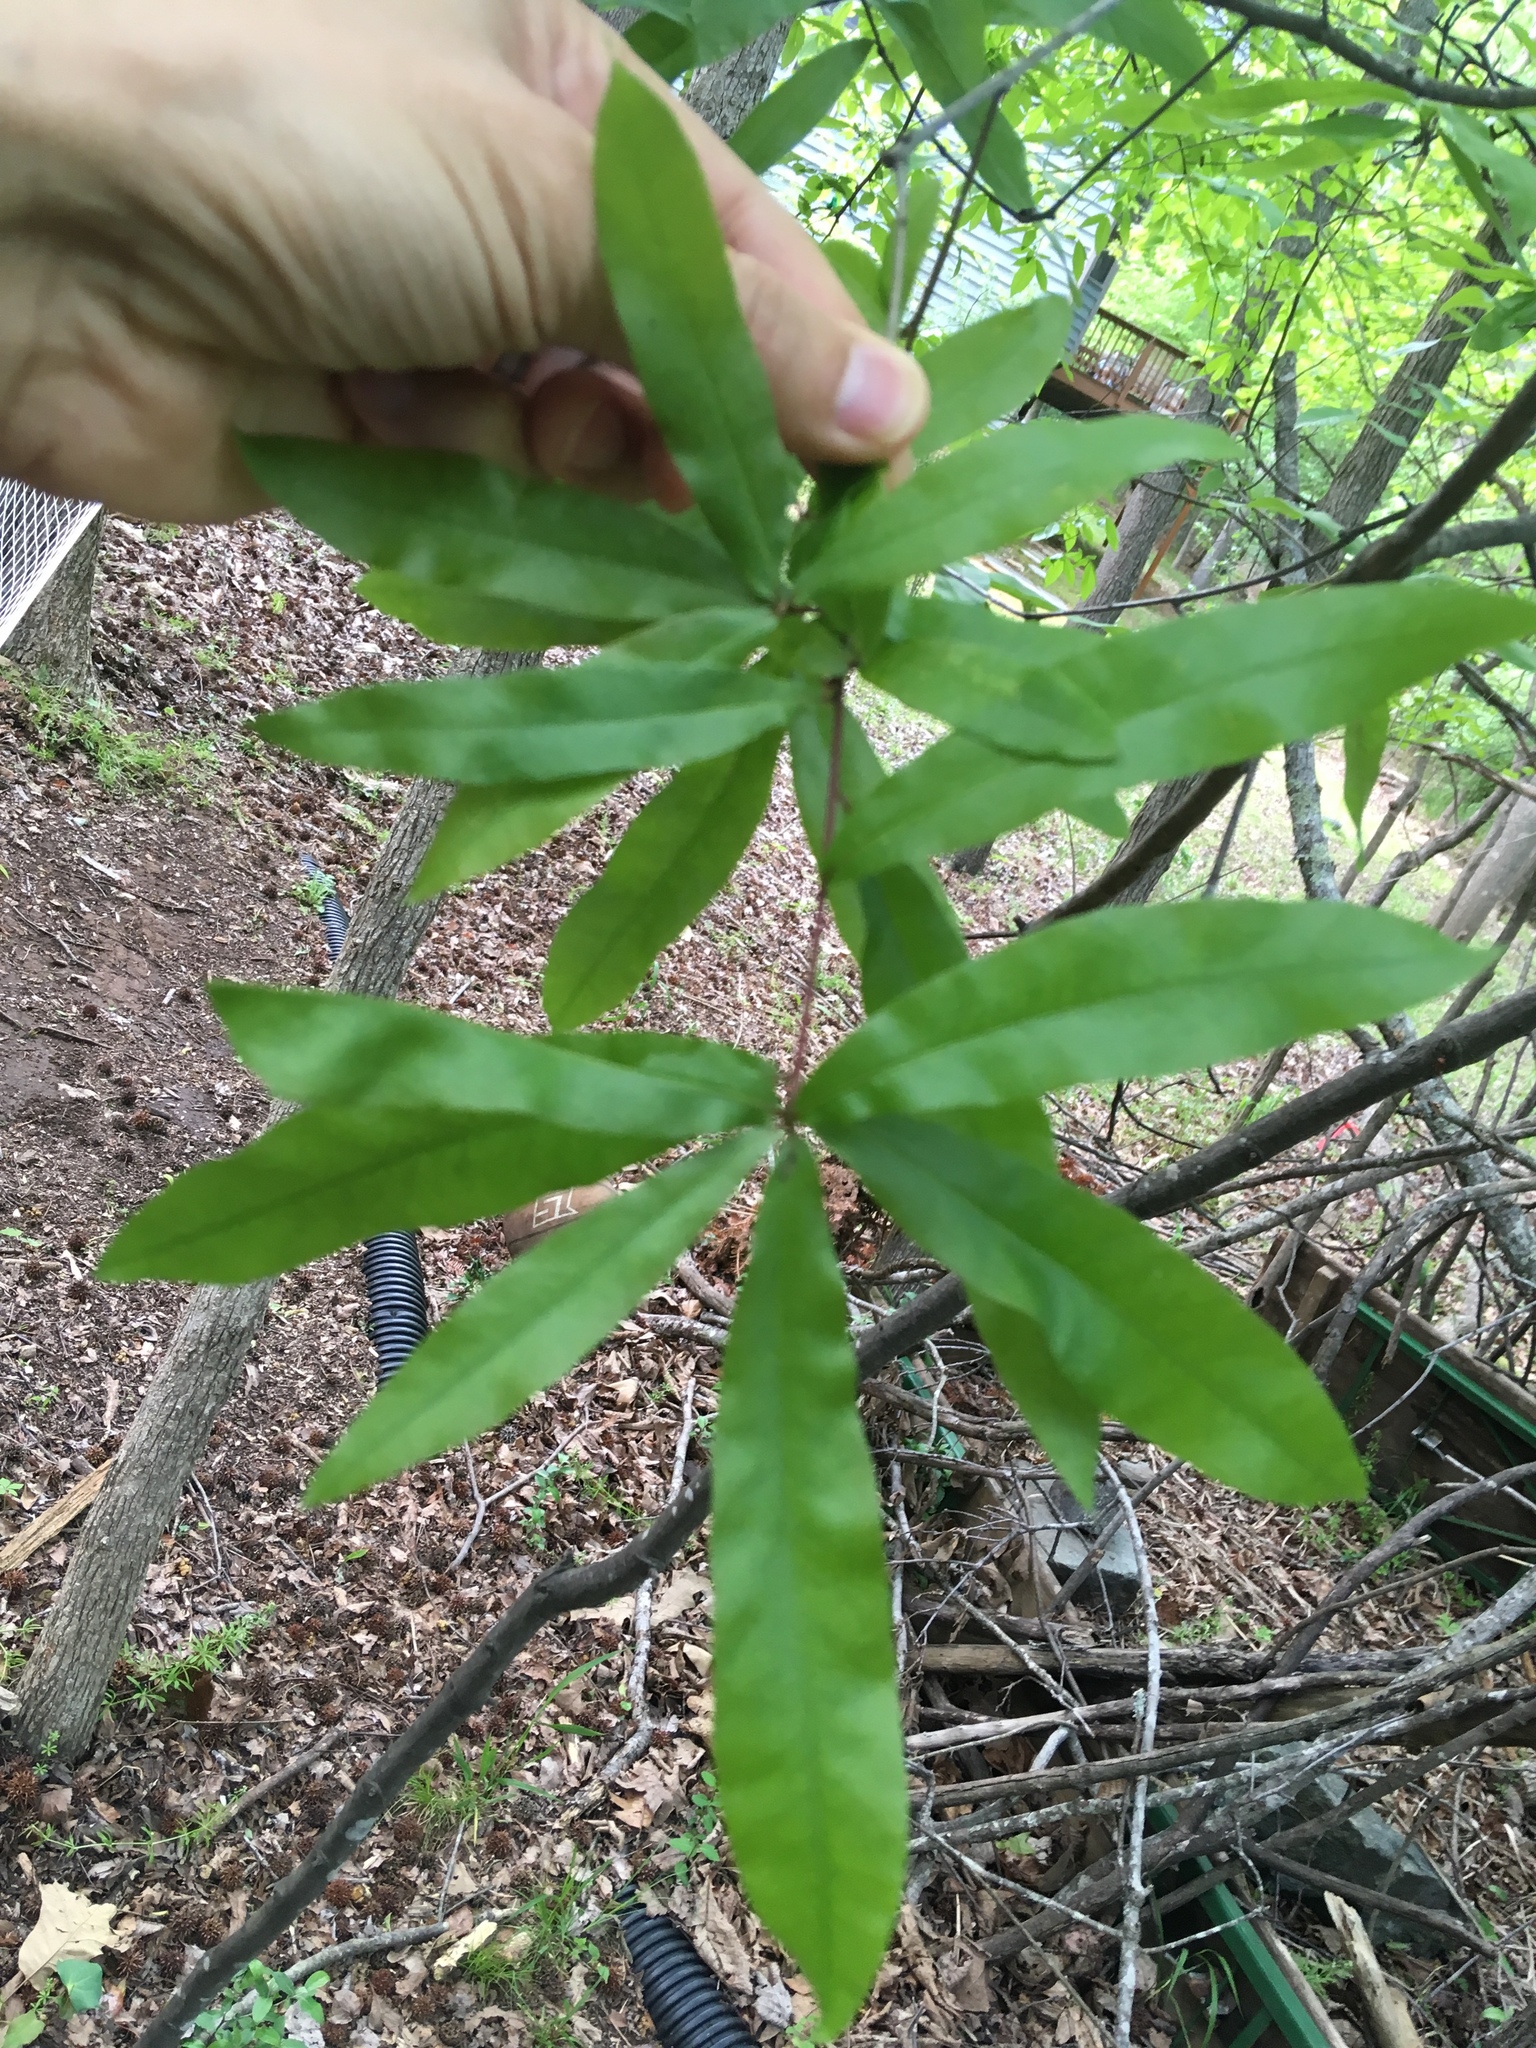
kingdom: Plantae
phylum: Tracheophyta
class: Magnoliopsida
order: Fagales
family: Fagaceae
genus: Quercus
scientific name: Quercus phellos
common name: Willow oak
